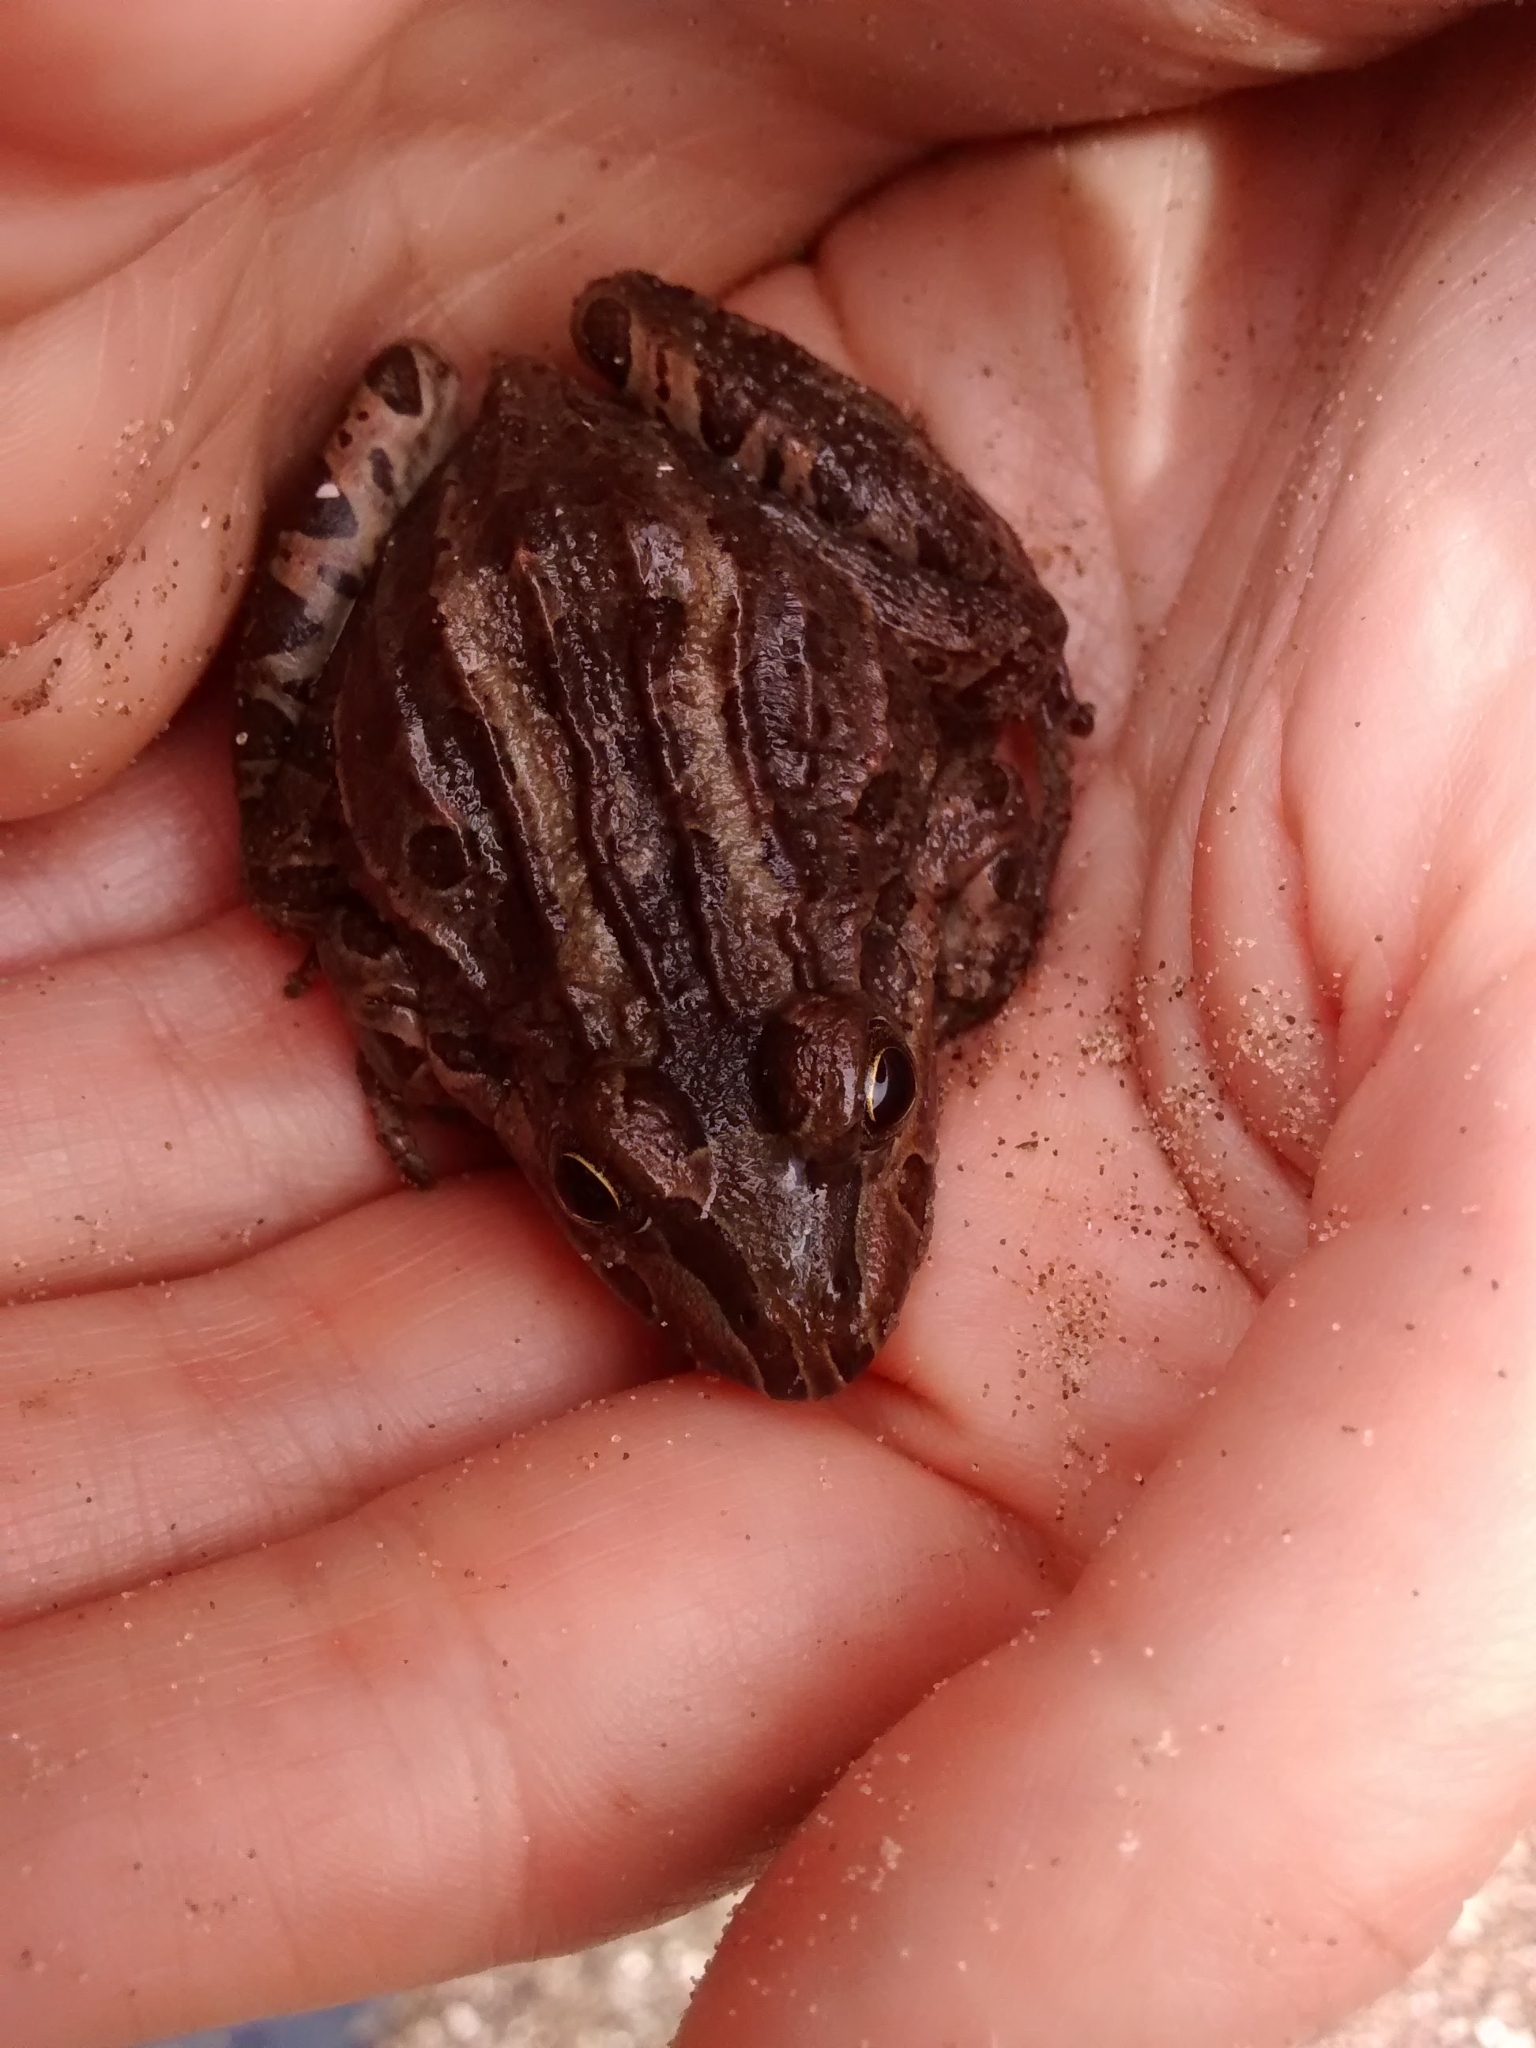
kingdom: Animalia
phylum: Chordata
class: Amphibia
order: Anura
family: Leptodactylidae
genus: Leptodactylus
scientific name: Leptodactylus luctator
